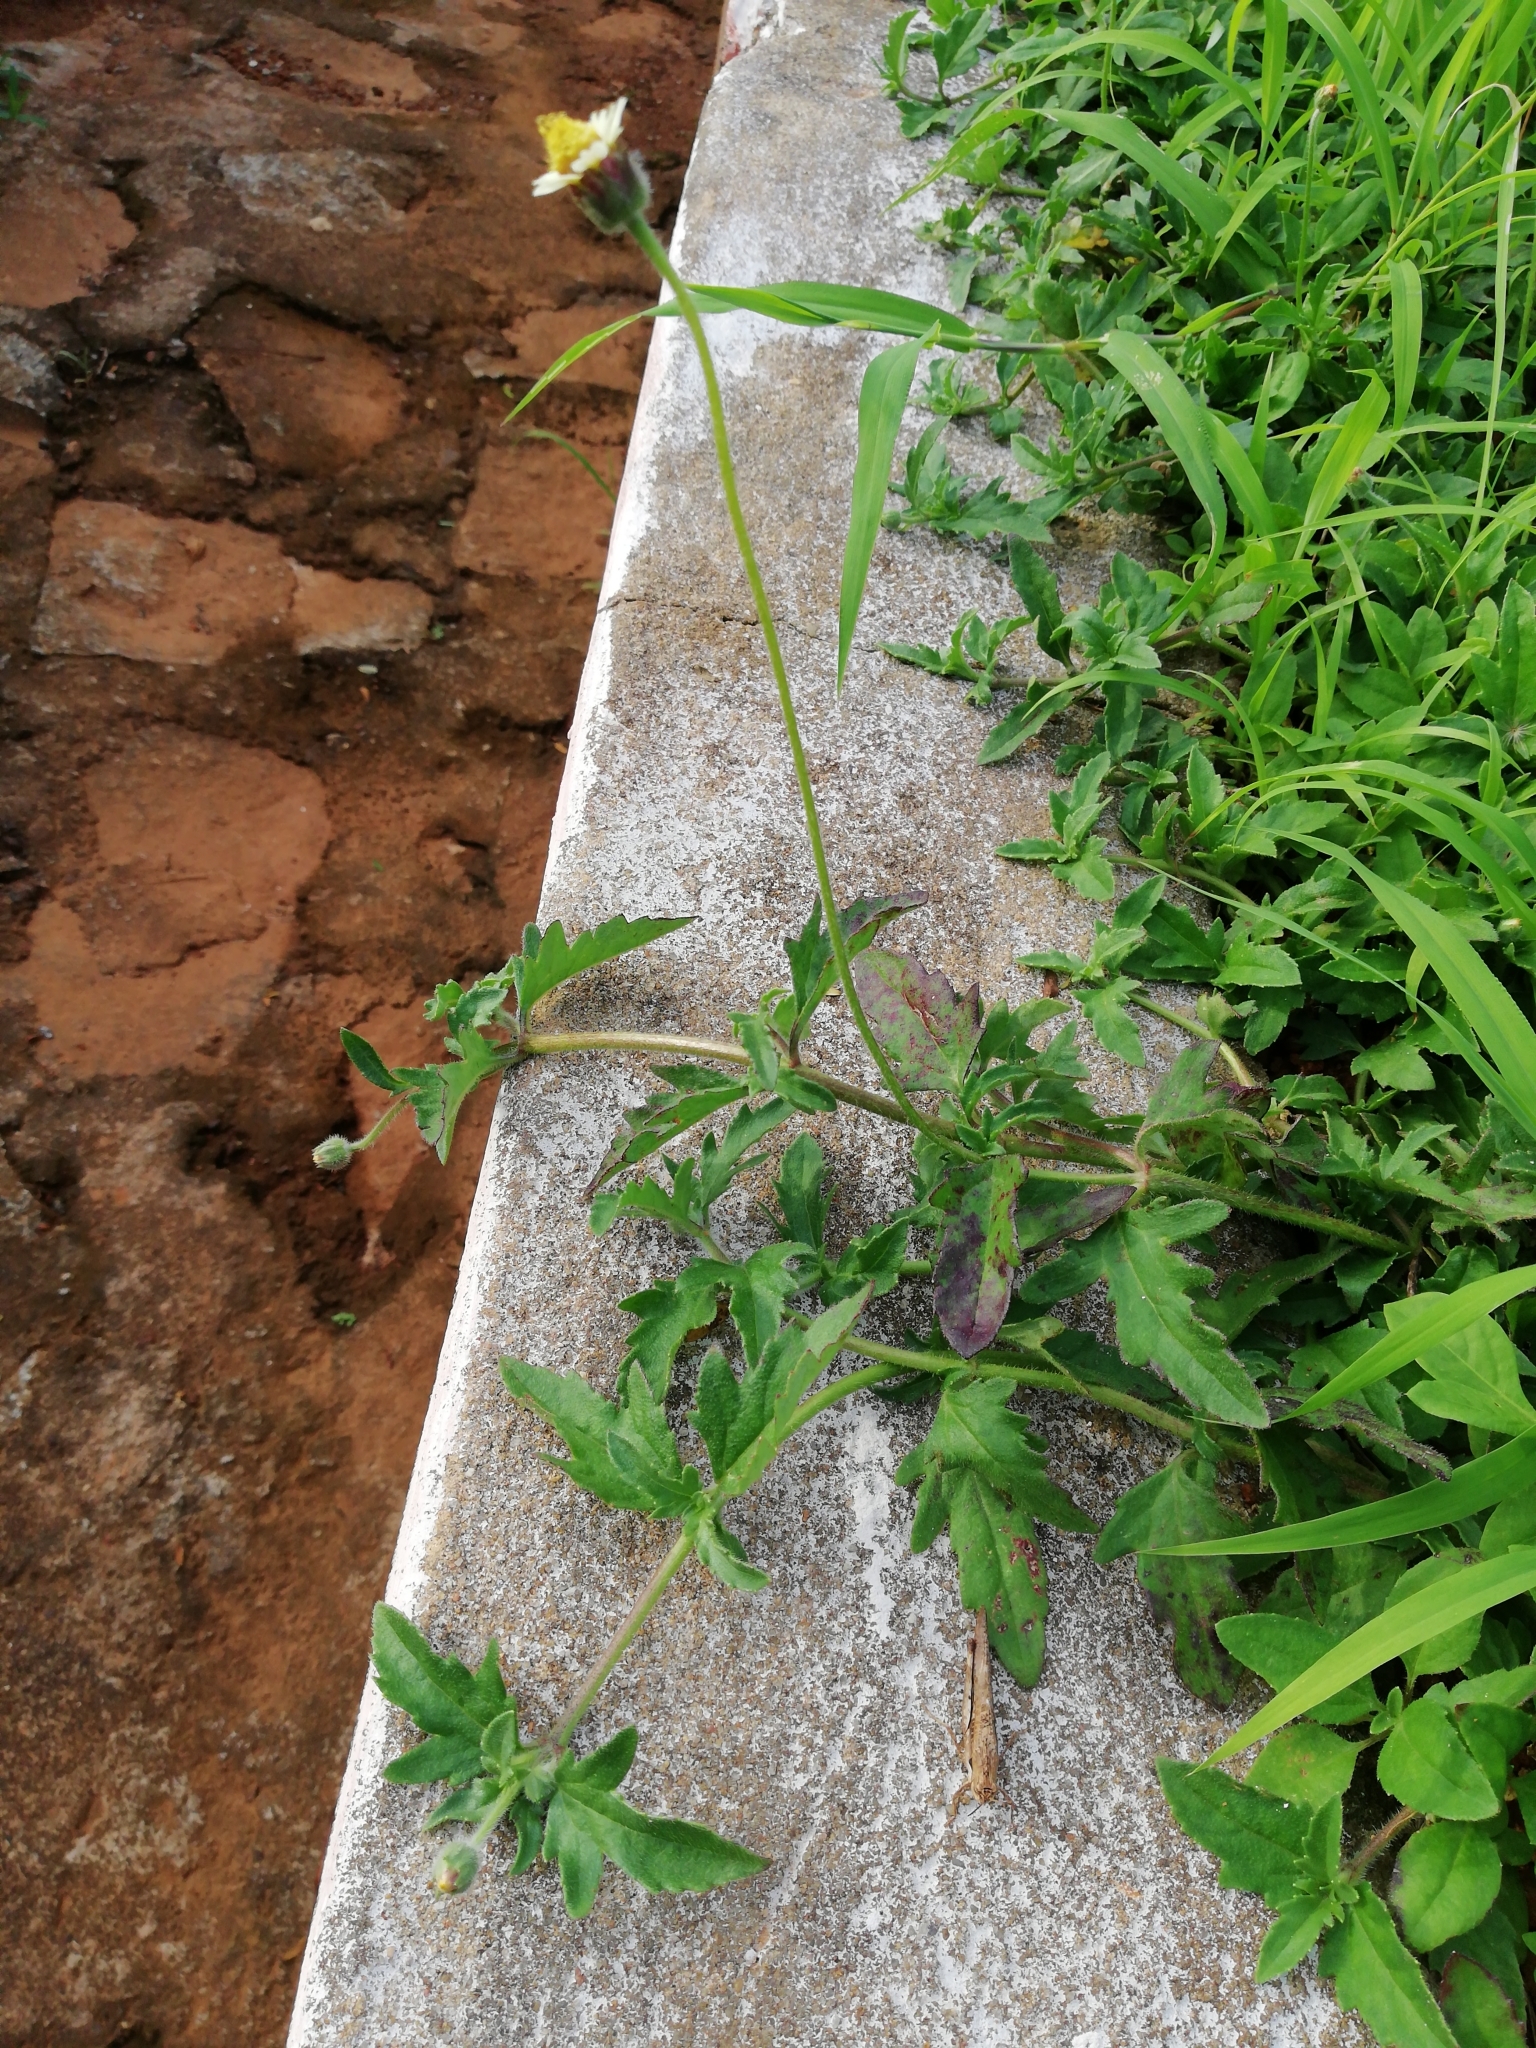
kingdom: Plantae
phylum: Tracheophyta
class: Magnoliopsida
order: Asterales
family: Asteraceae
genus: Tridax
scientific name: Tridax procumbens
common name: Coatbuttons
